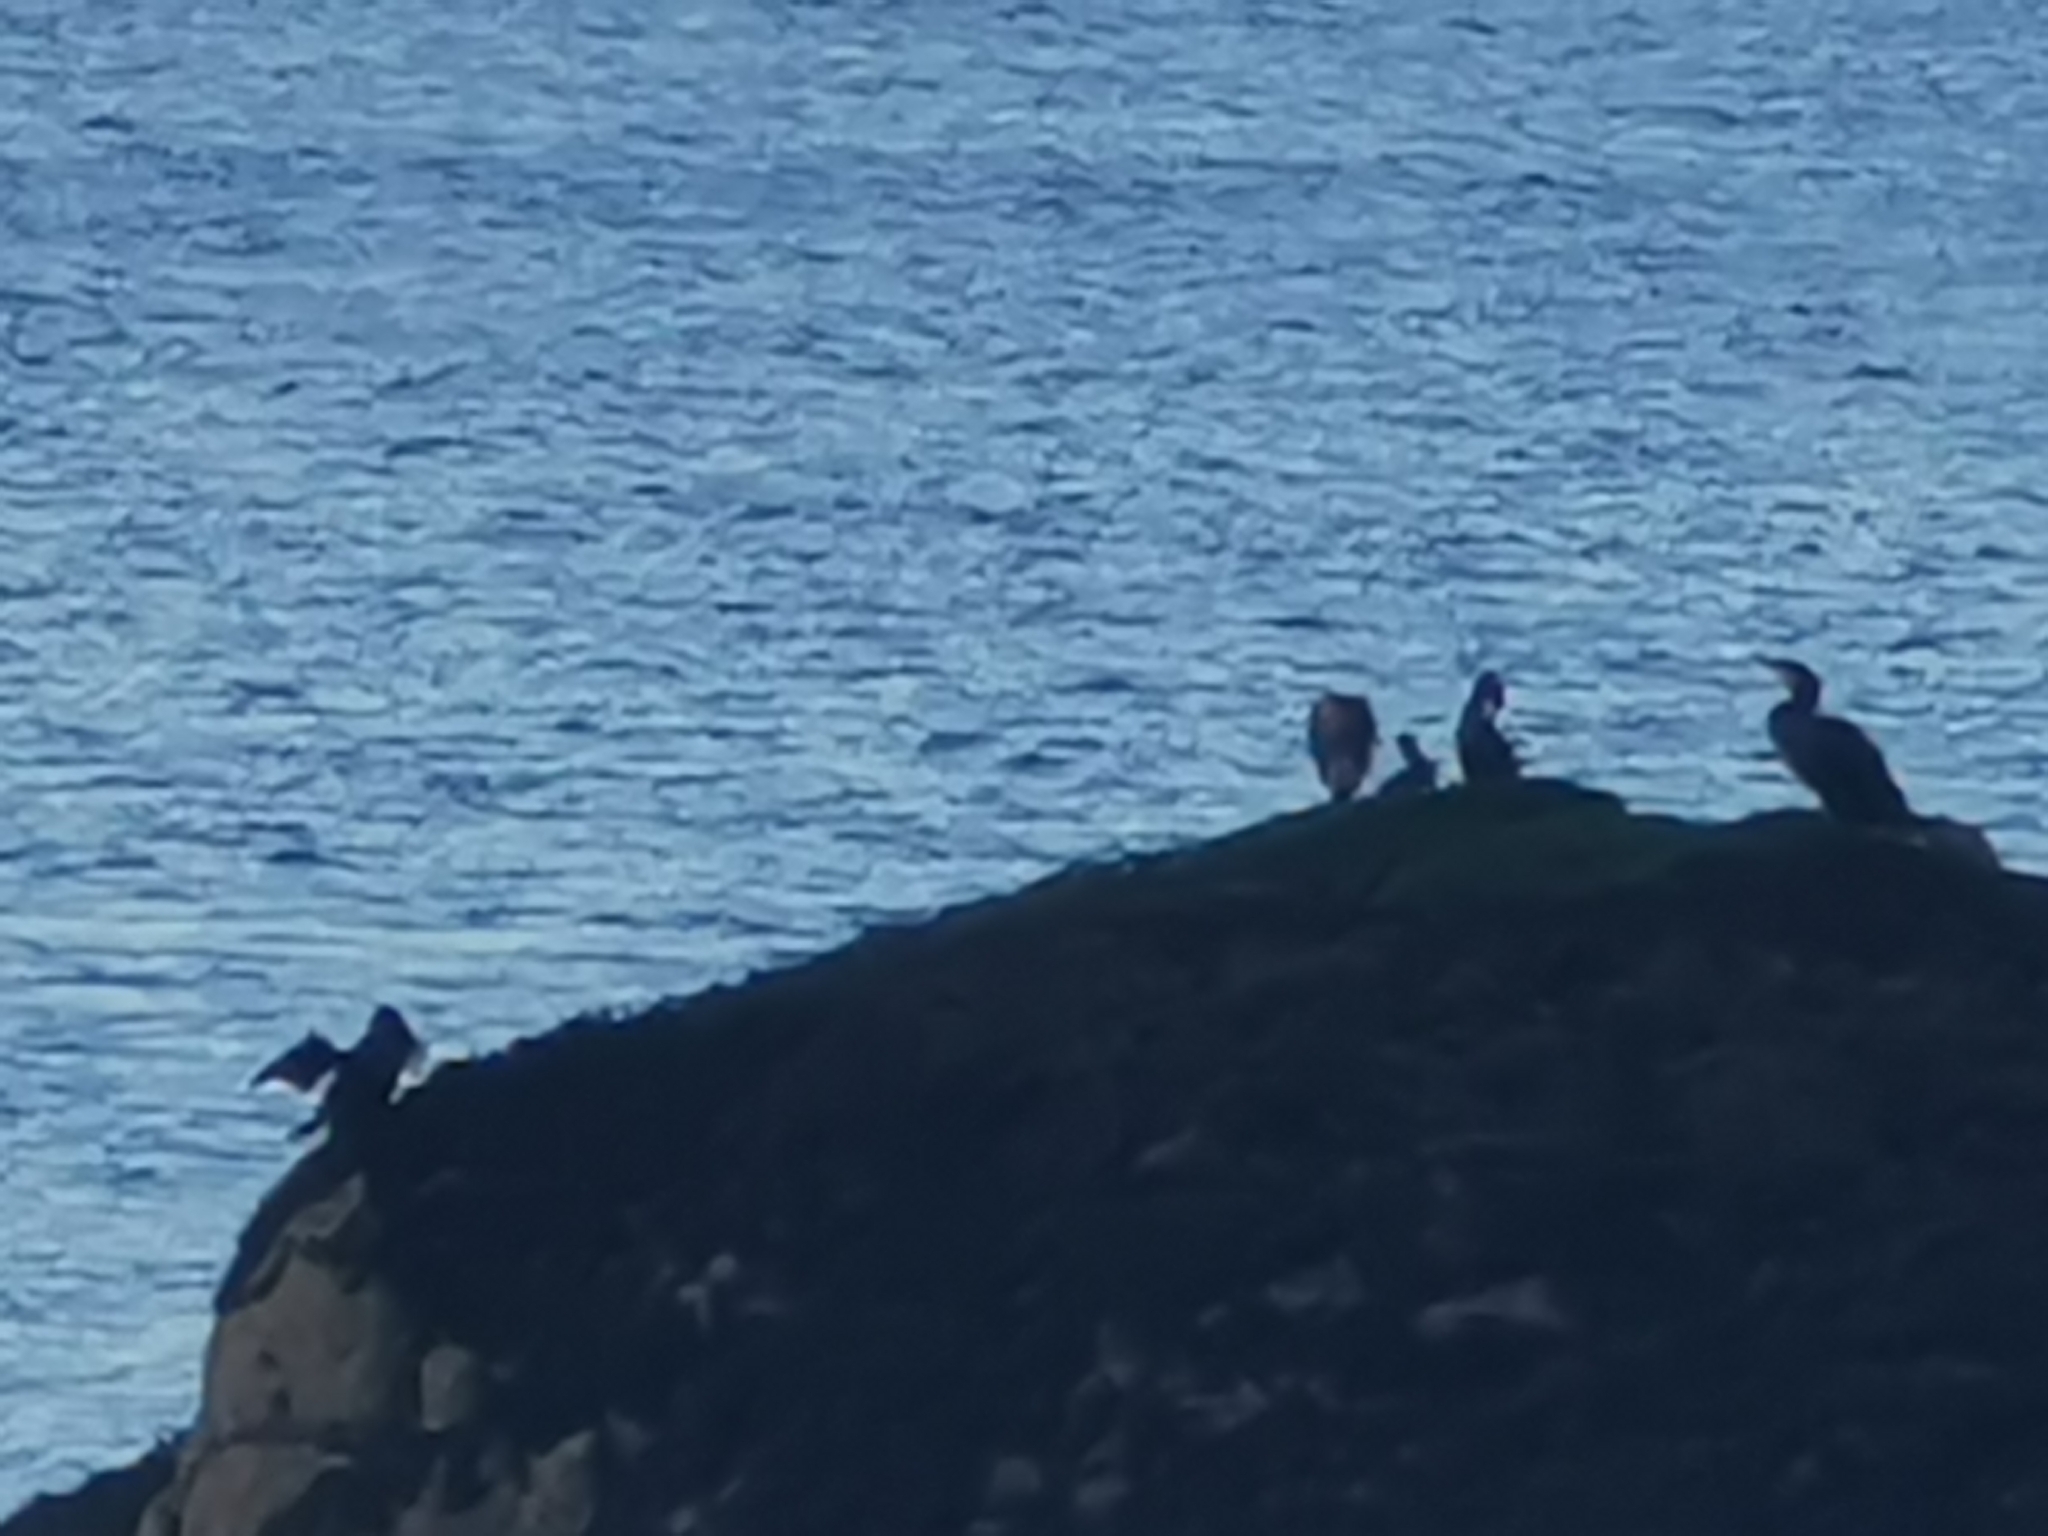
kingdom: Animalia
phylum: Chordata
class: Aves
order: Suliformes
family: Phalacrocoracidae
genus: Phalacrocorax
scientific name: Phalacrocorax aristotelis
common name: European shag
